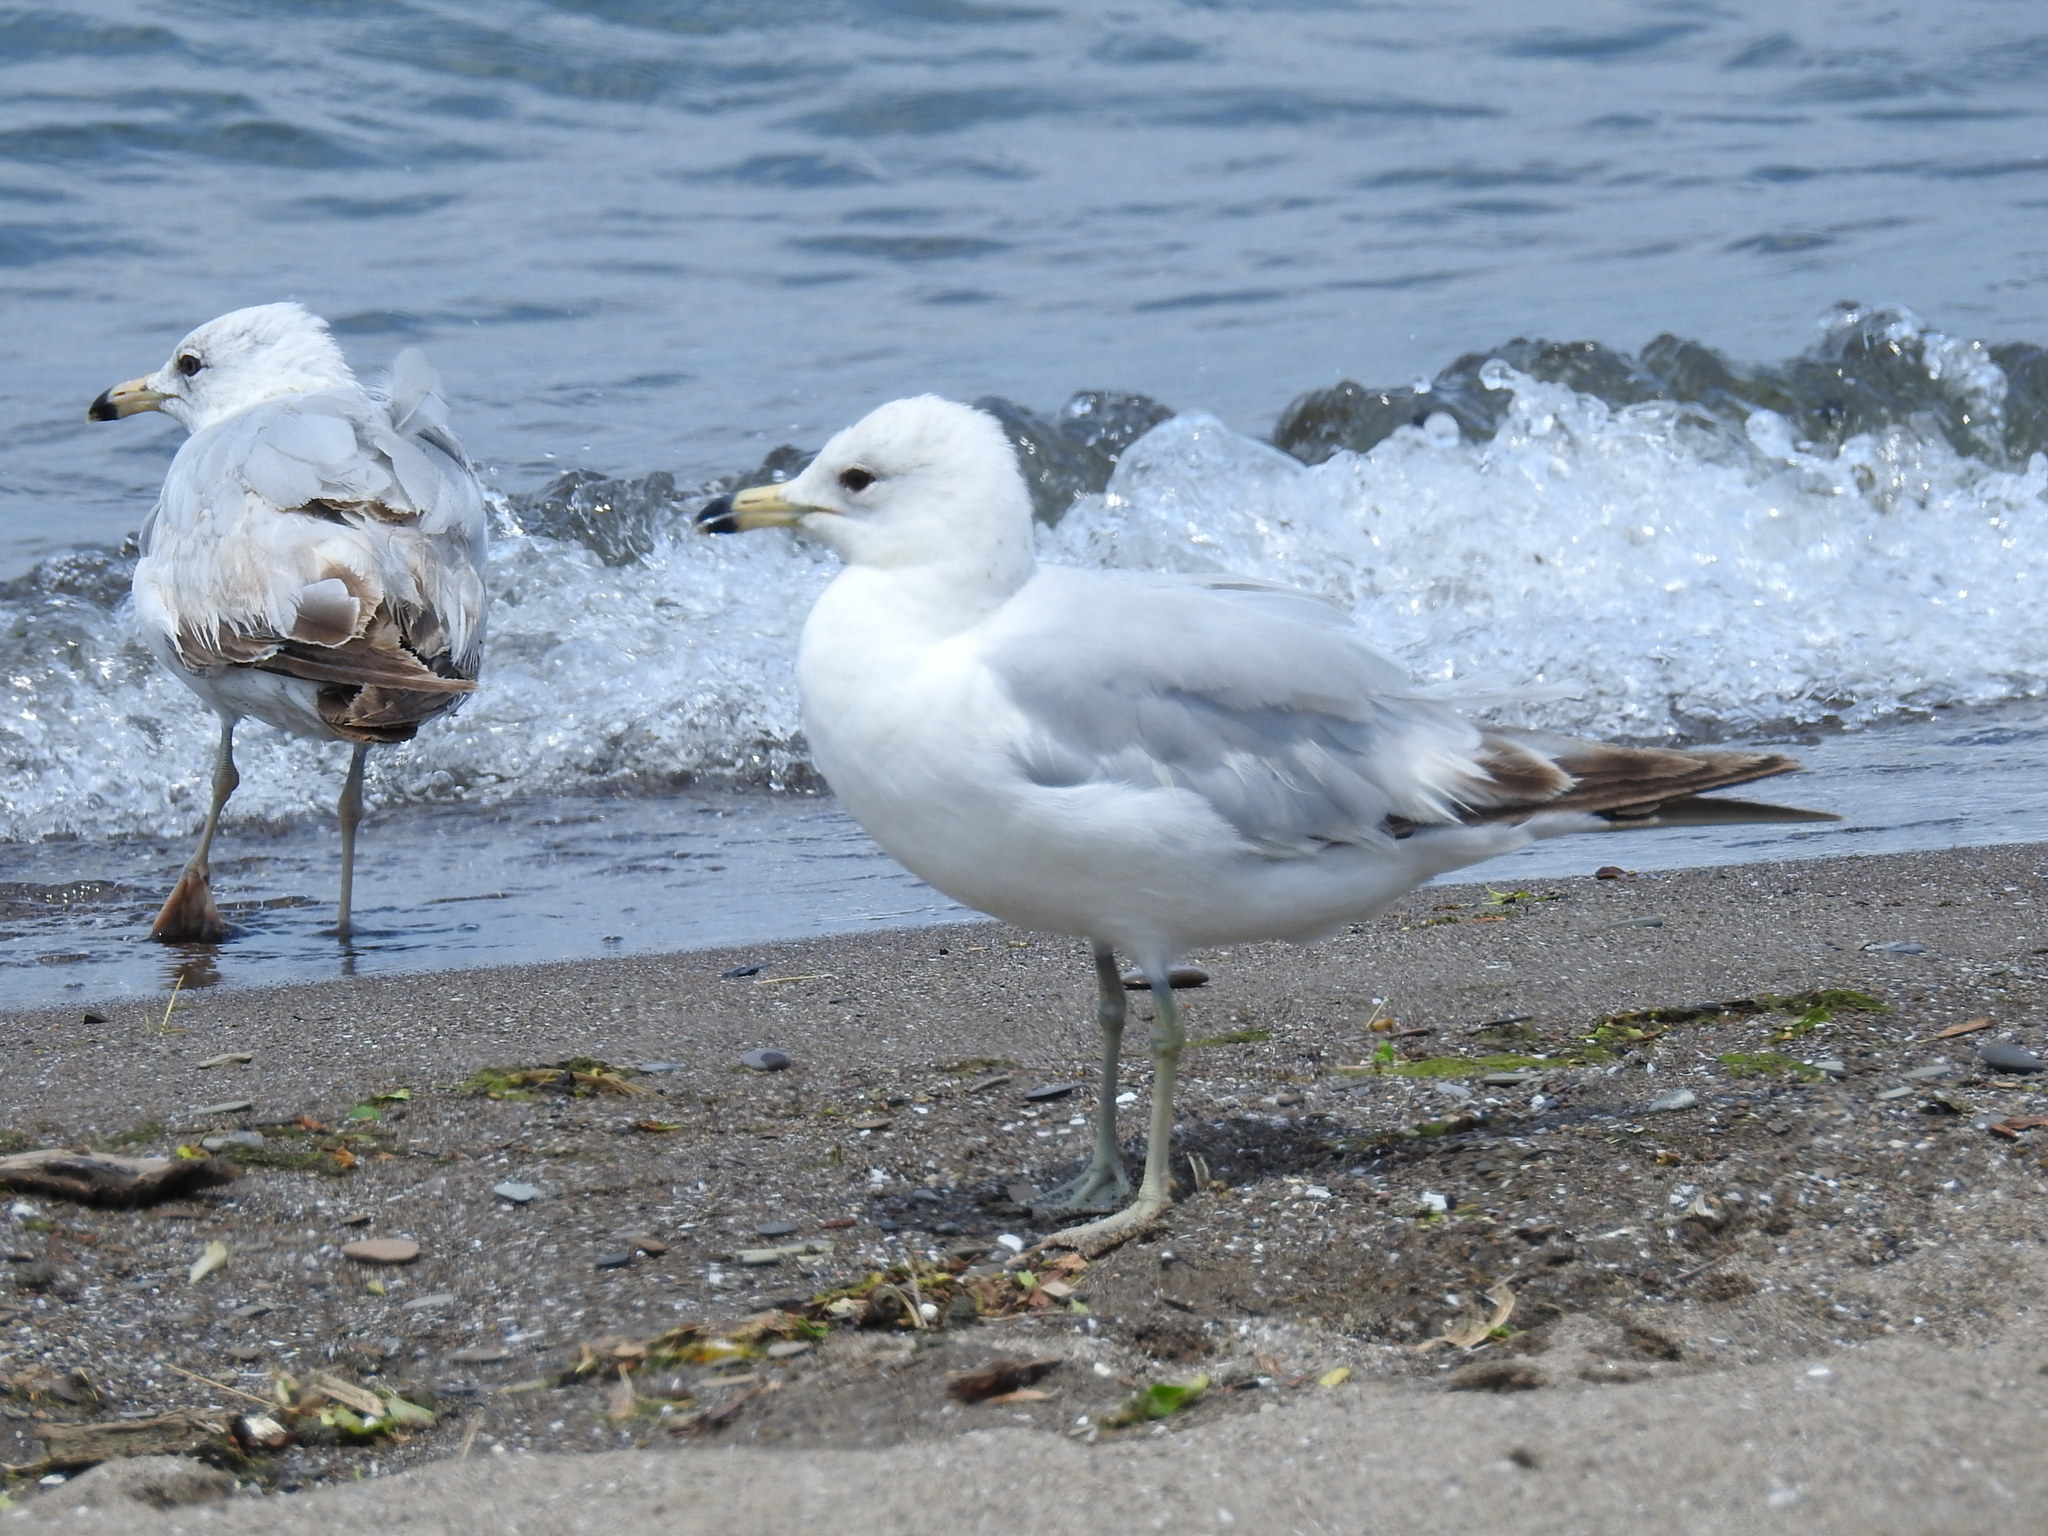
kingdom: Animalia
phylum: Chordata
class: Aves
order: Charadriiformes
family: Laridae
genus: Larus
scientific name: Larus delawarensis
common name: Ring-billed gull
